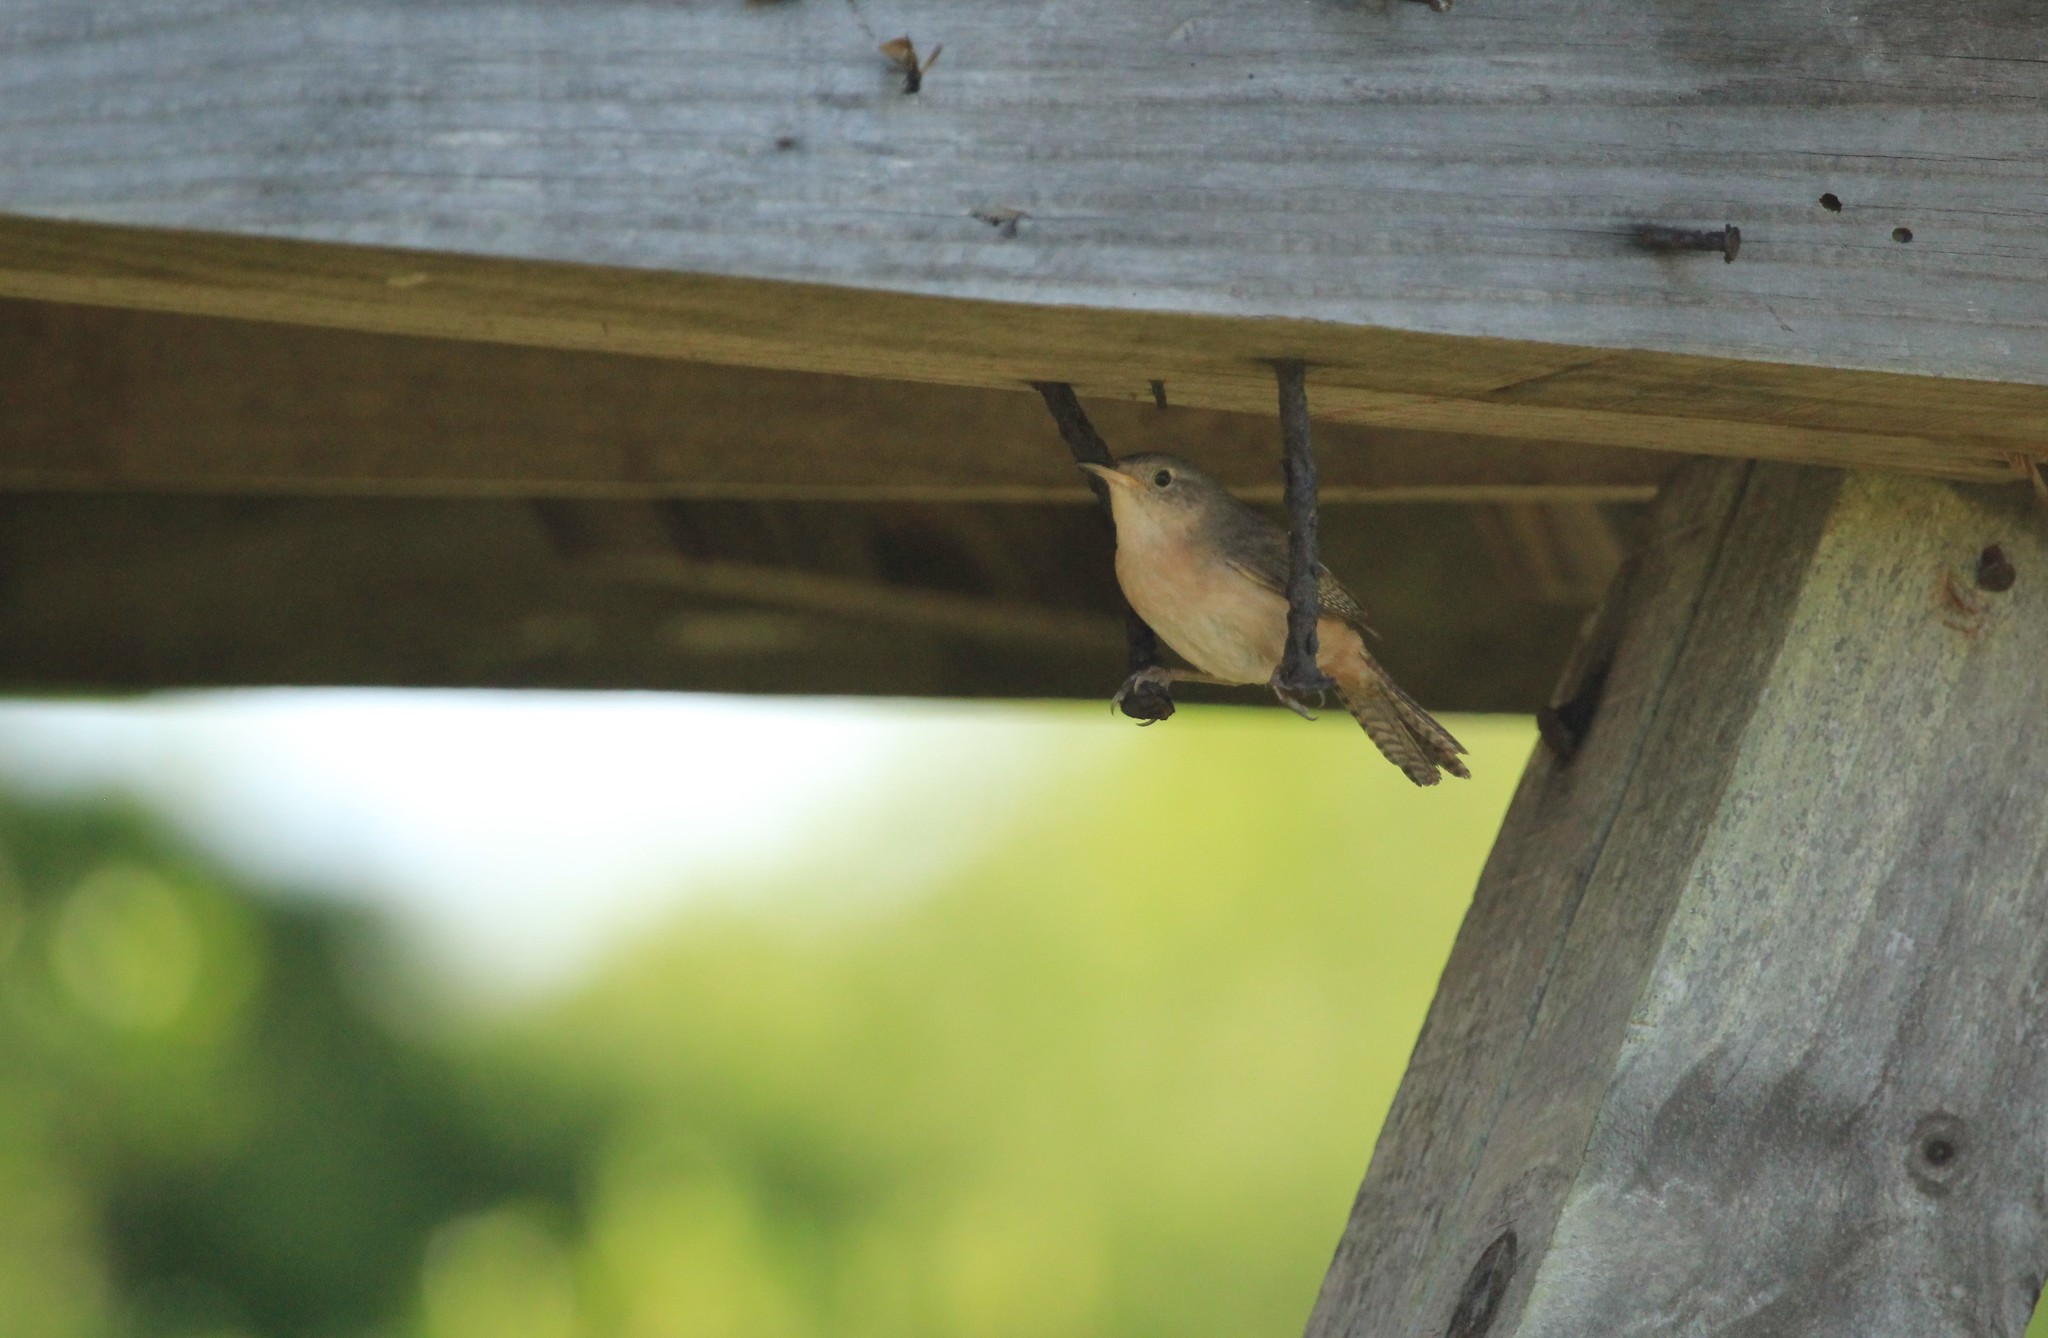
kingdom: Animalia
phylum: Chordata
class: Aves
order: Passeriformes
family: Troglodytidae
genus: Troglodytes
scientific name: Troglodytes aedon
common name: House wren
